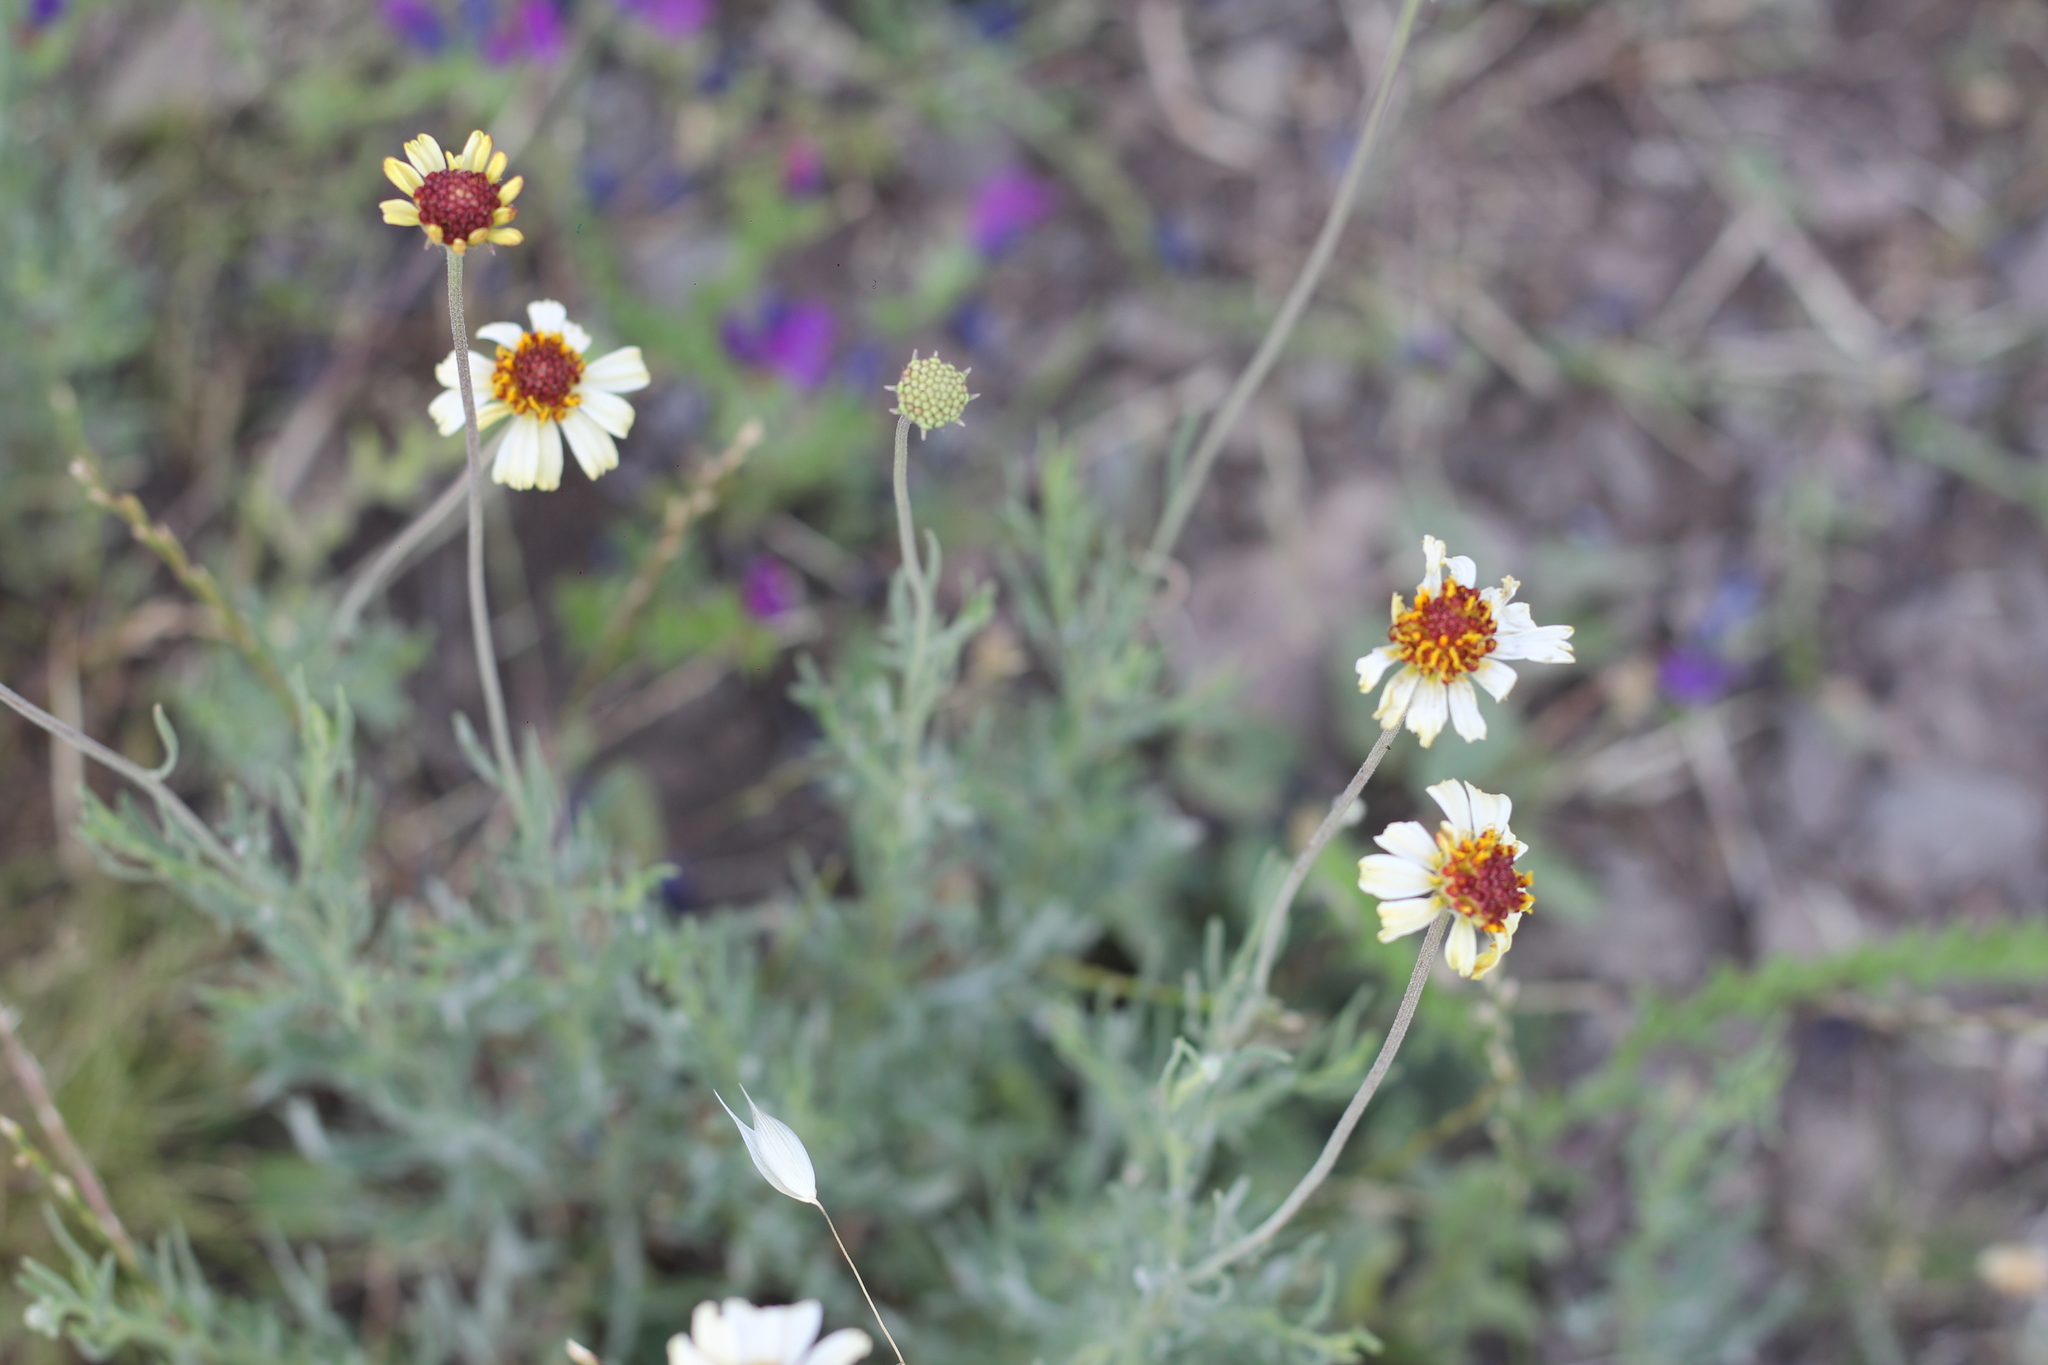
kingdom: Plantae
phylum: Tracheophyta
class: Magnoliopsida
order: Asterales
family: Asteraceae
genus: Helenium
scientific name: Helenium uniflorum
